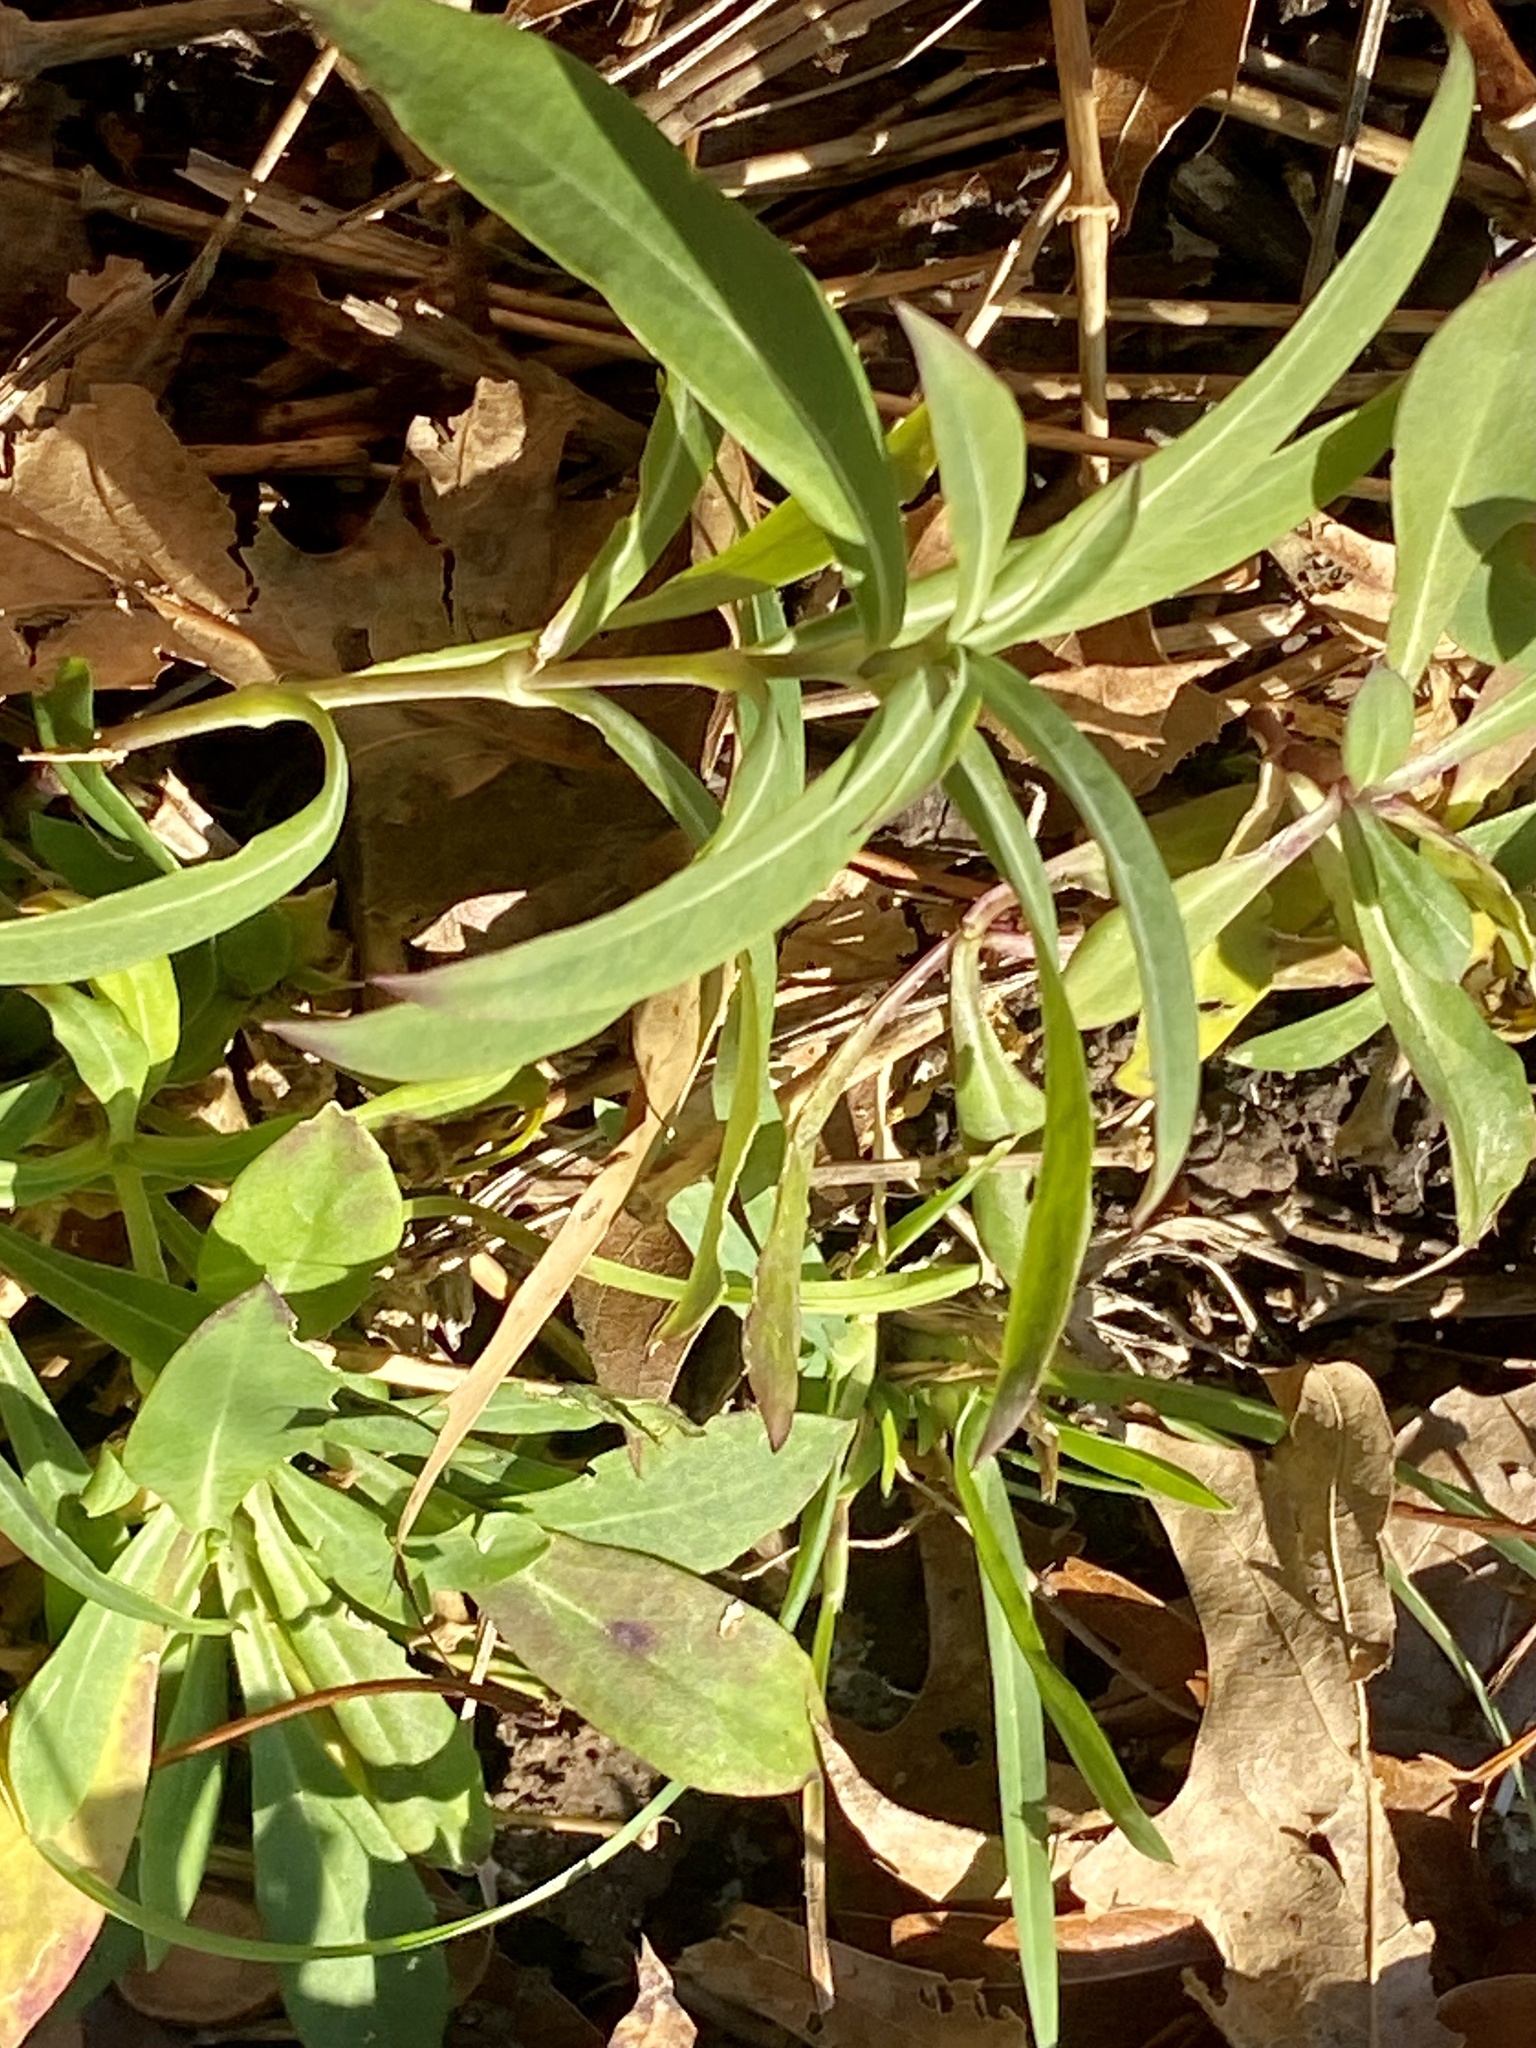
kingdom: Plantae
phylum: Tracheophyta
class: Magnoliopsida
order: Caryophyllales
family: Caryophyllaceae
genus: Silene
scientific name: Silene vulgaris
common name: Bladder campion
